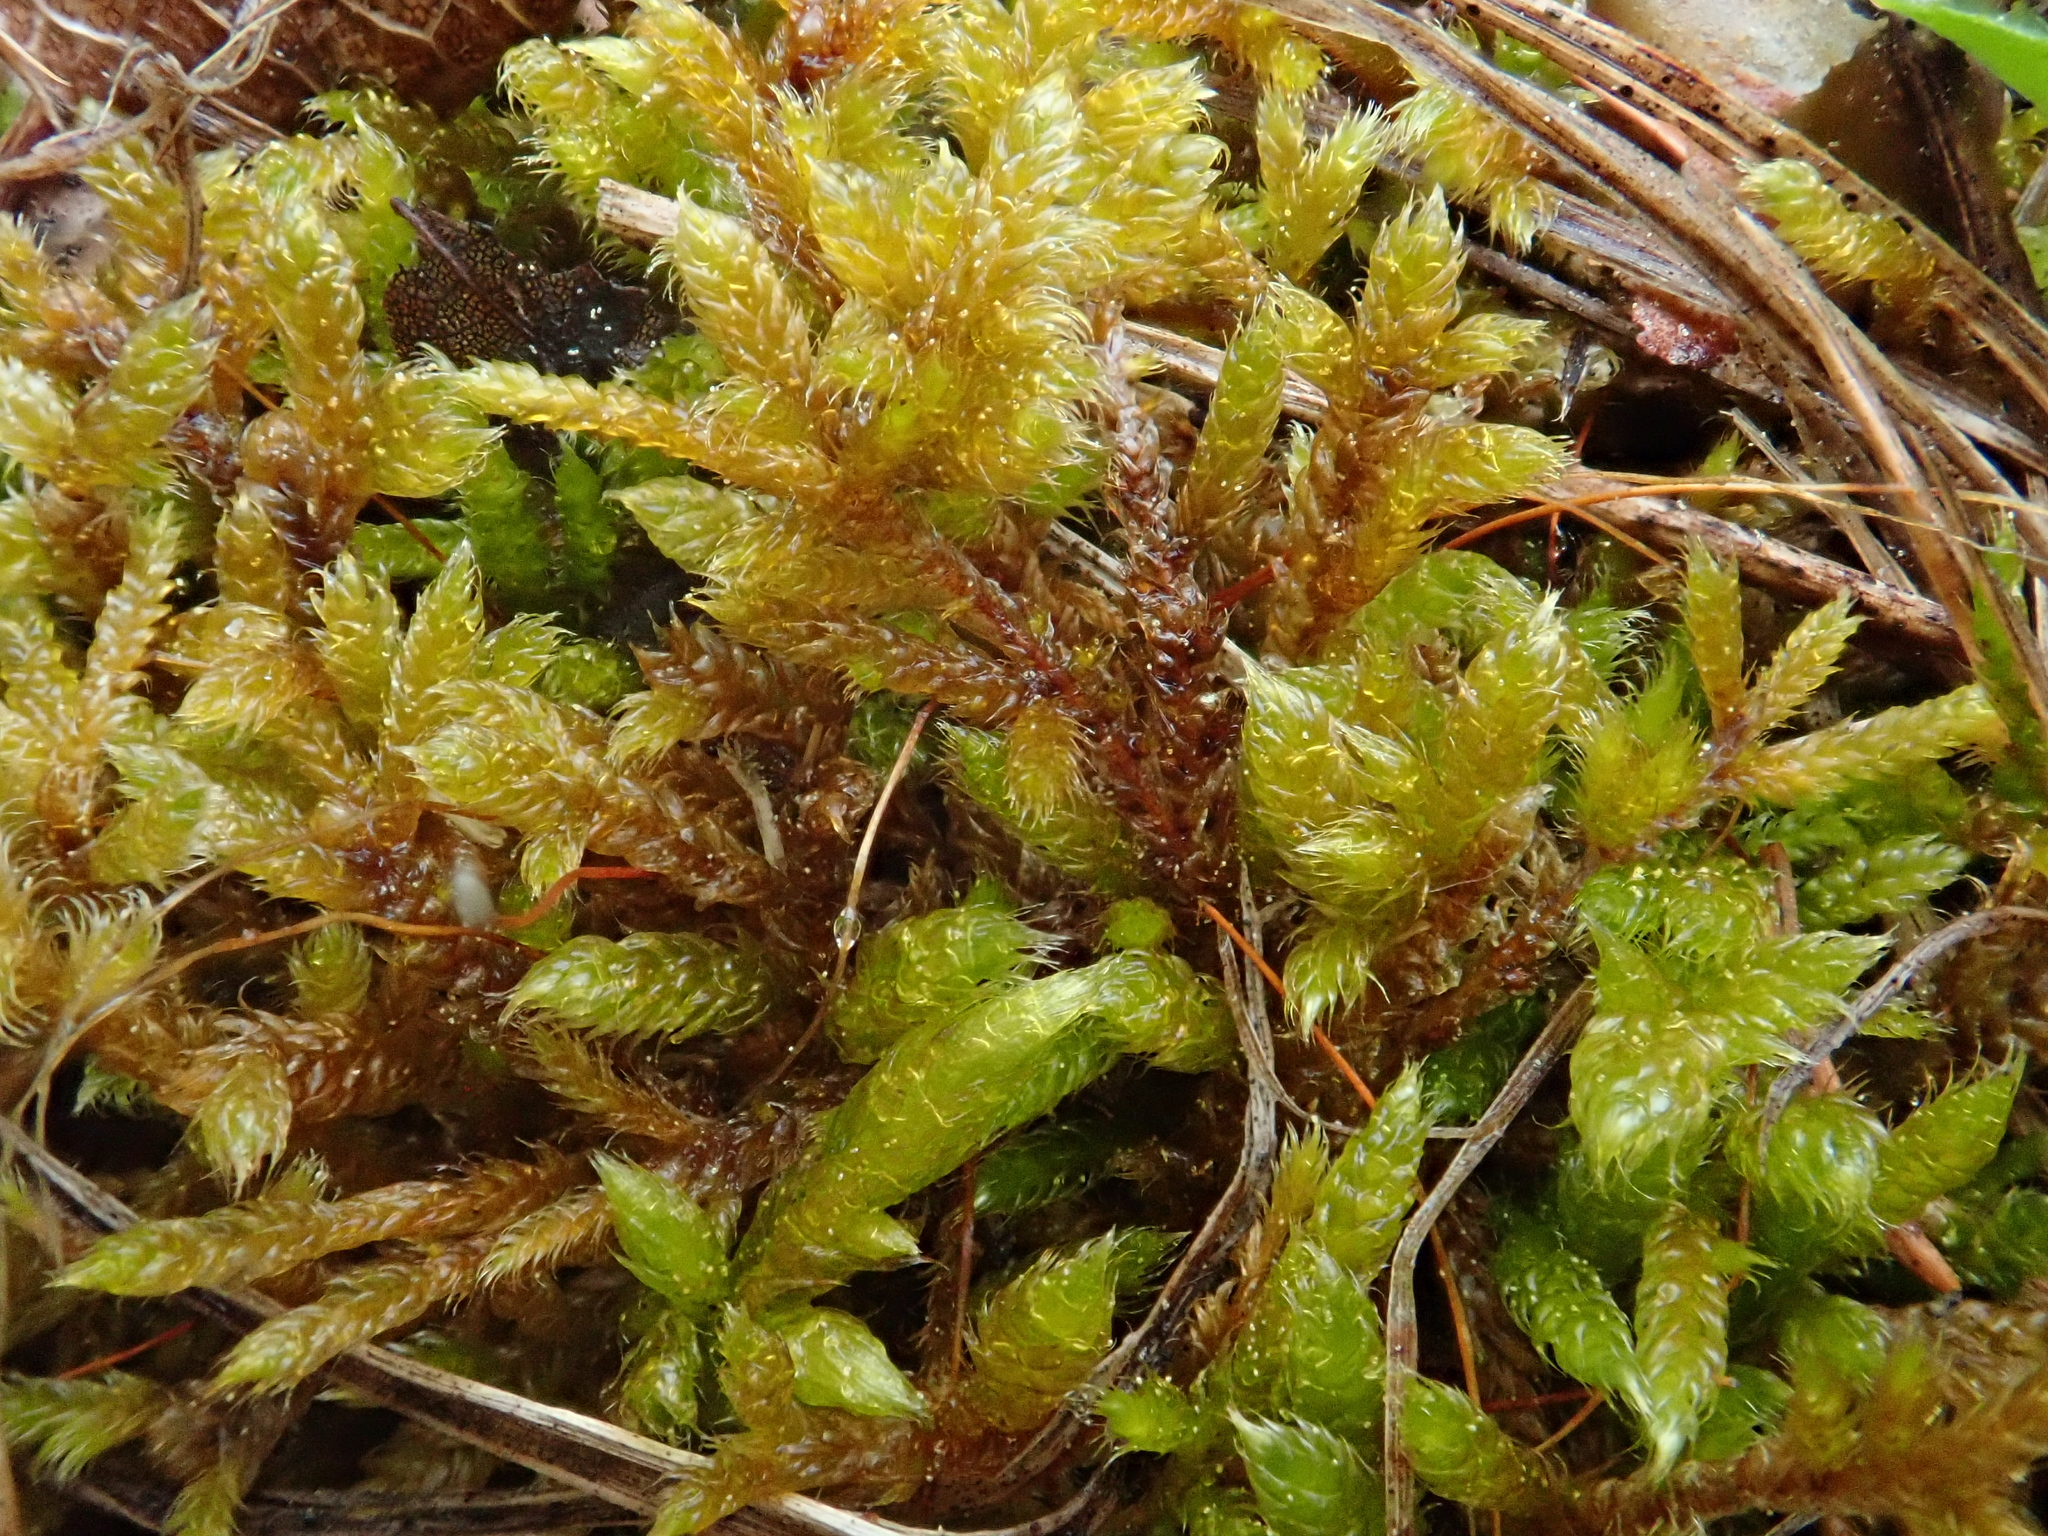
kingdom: Plantae
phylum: Bryophyta
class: Bryopsida
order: Hypnales
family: Hypnaceae
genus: Hypnum
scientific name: Hypnum cupressiforme
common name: Cypress-leaved plait-moss
